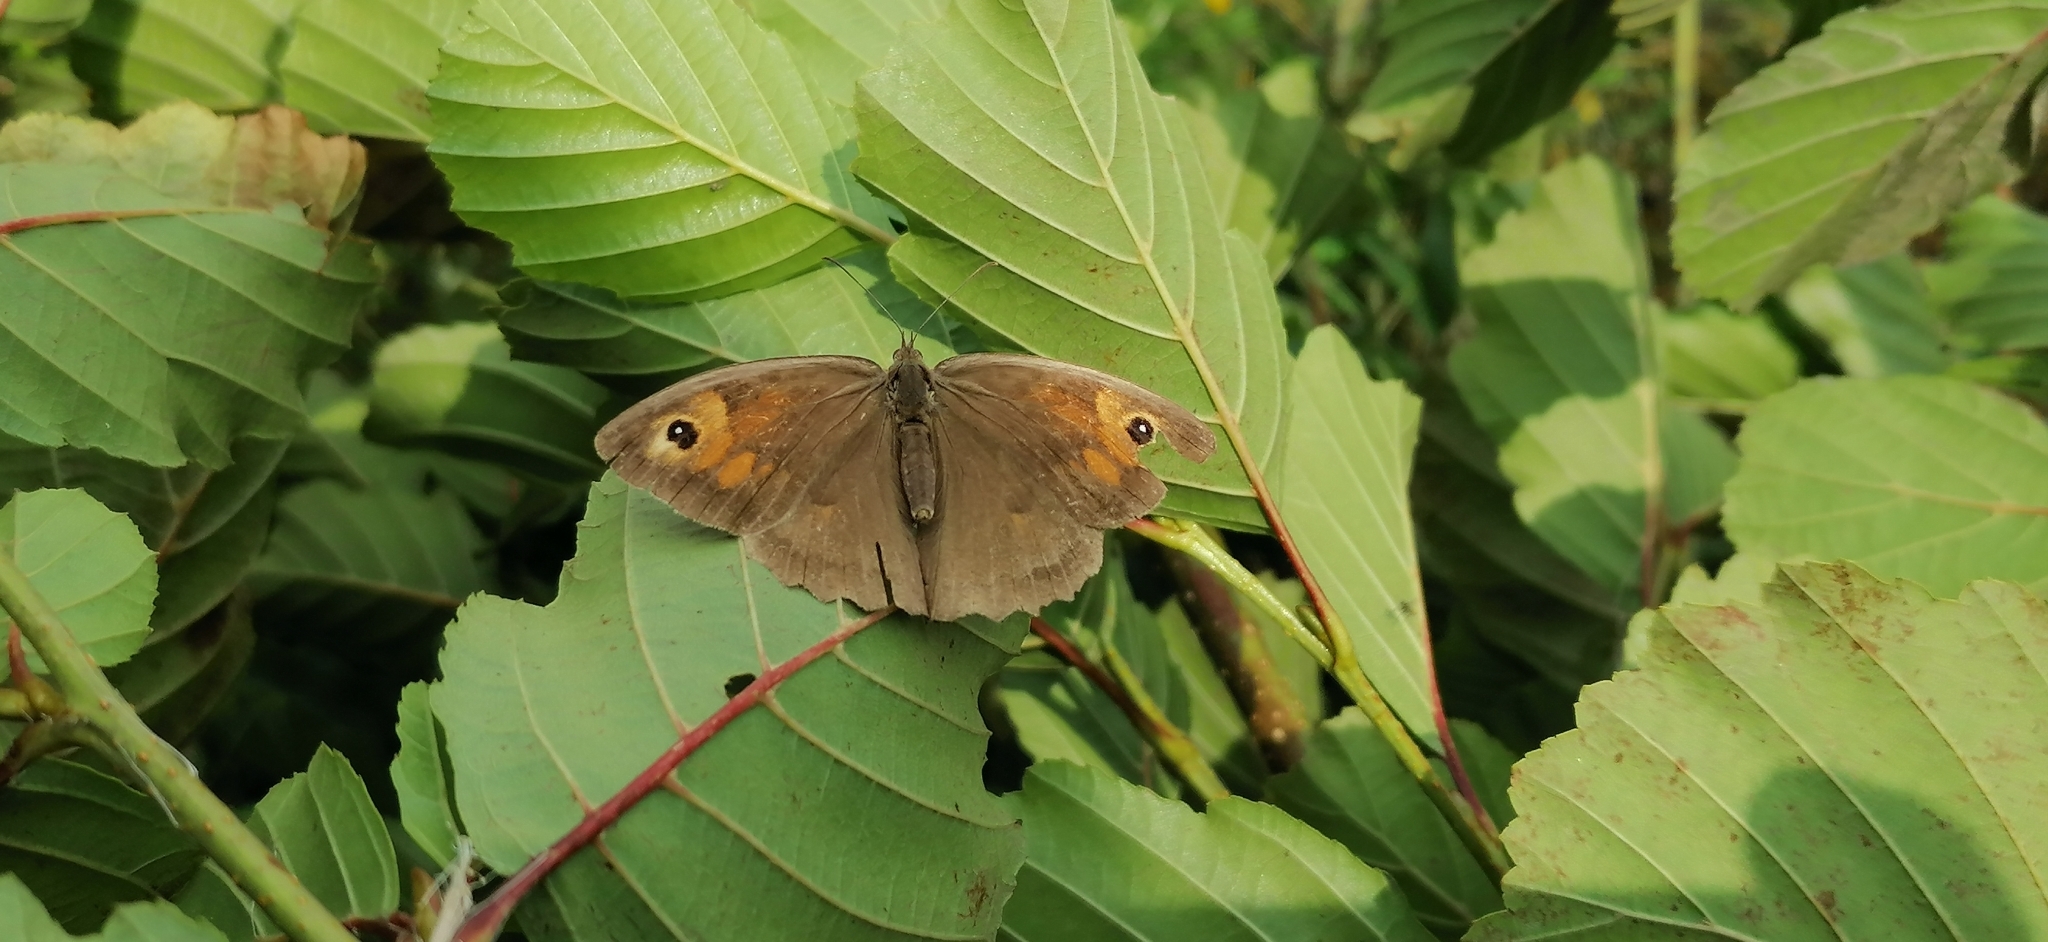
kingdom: Animalia
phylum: Arthropoda
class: Insecta
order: Lepidoptera
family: Nymphalidae
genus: Maniola
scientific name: Maniola jurtina
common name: Meadow brown
